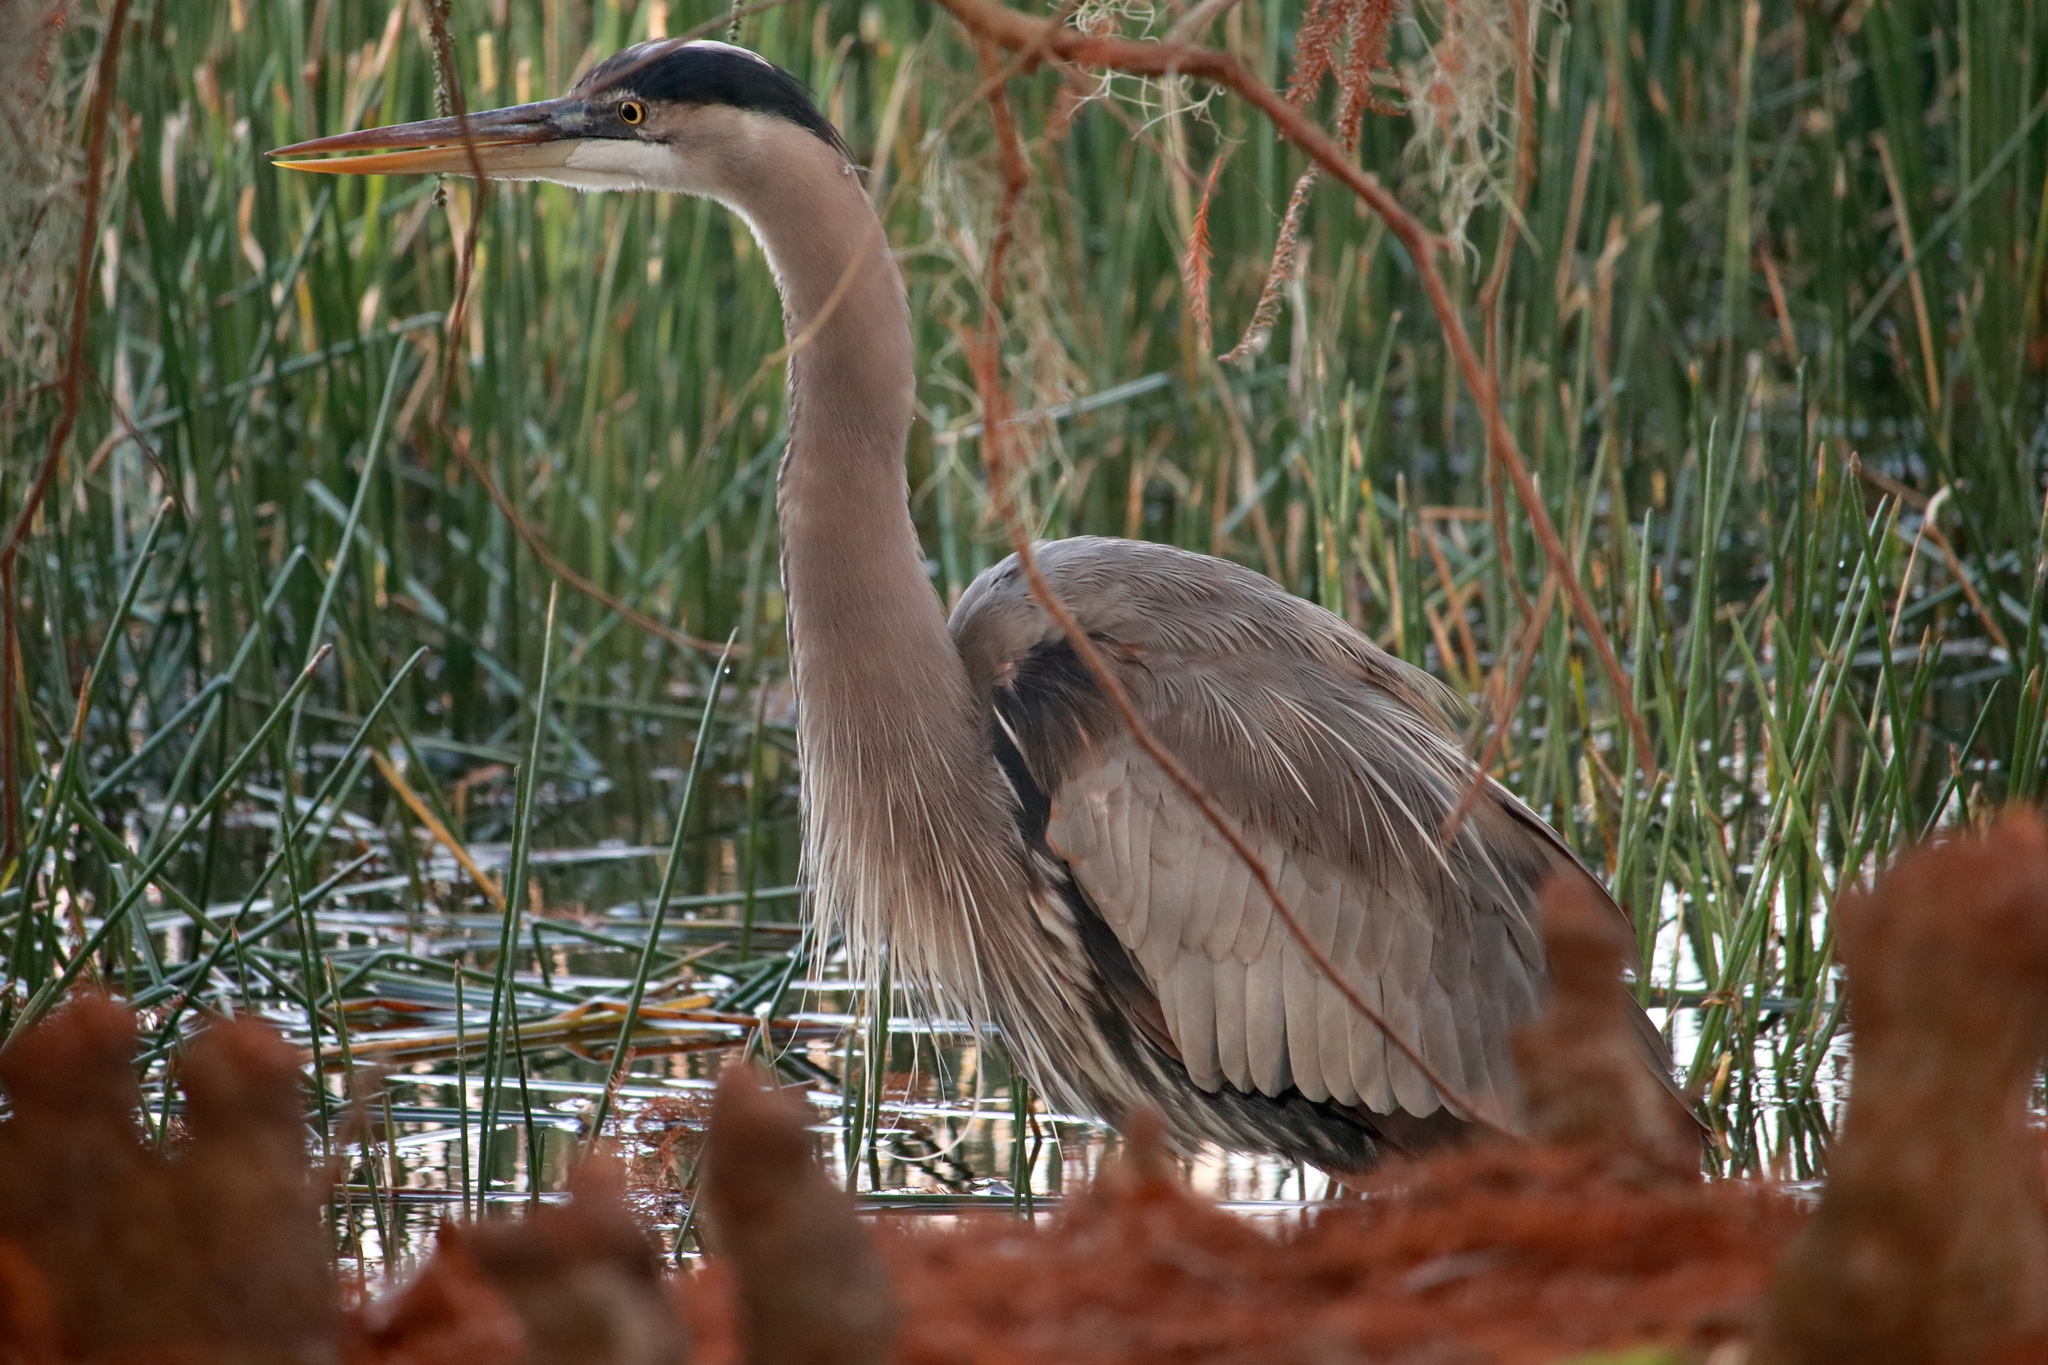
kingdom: Animalia
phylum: Chordata
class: Aves
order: Pelecaniformes
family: Ardeidae
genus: Ardea
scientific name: Ardea herodias
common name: Great blue heron
